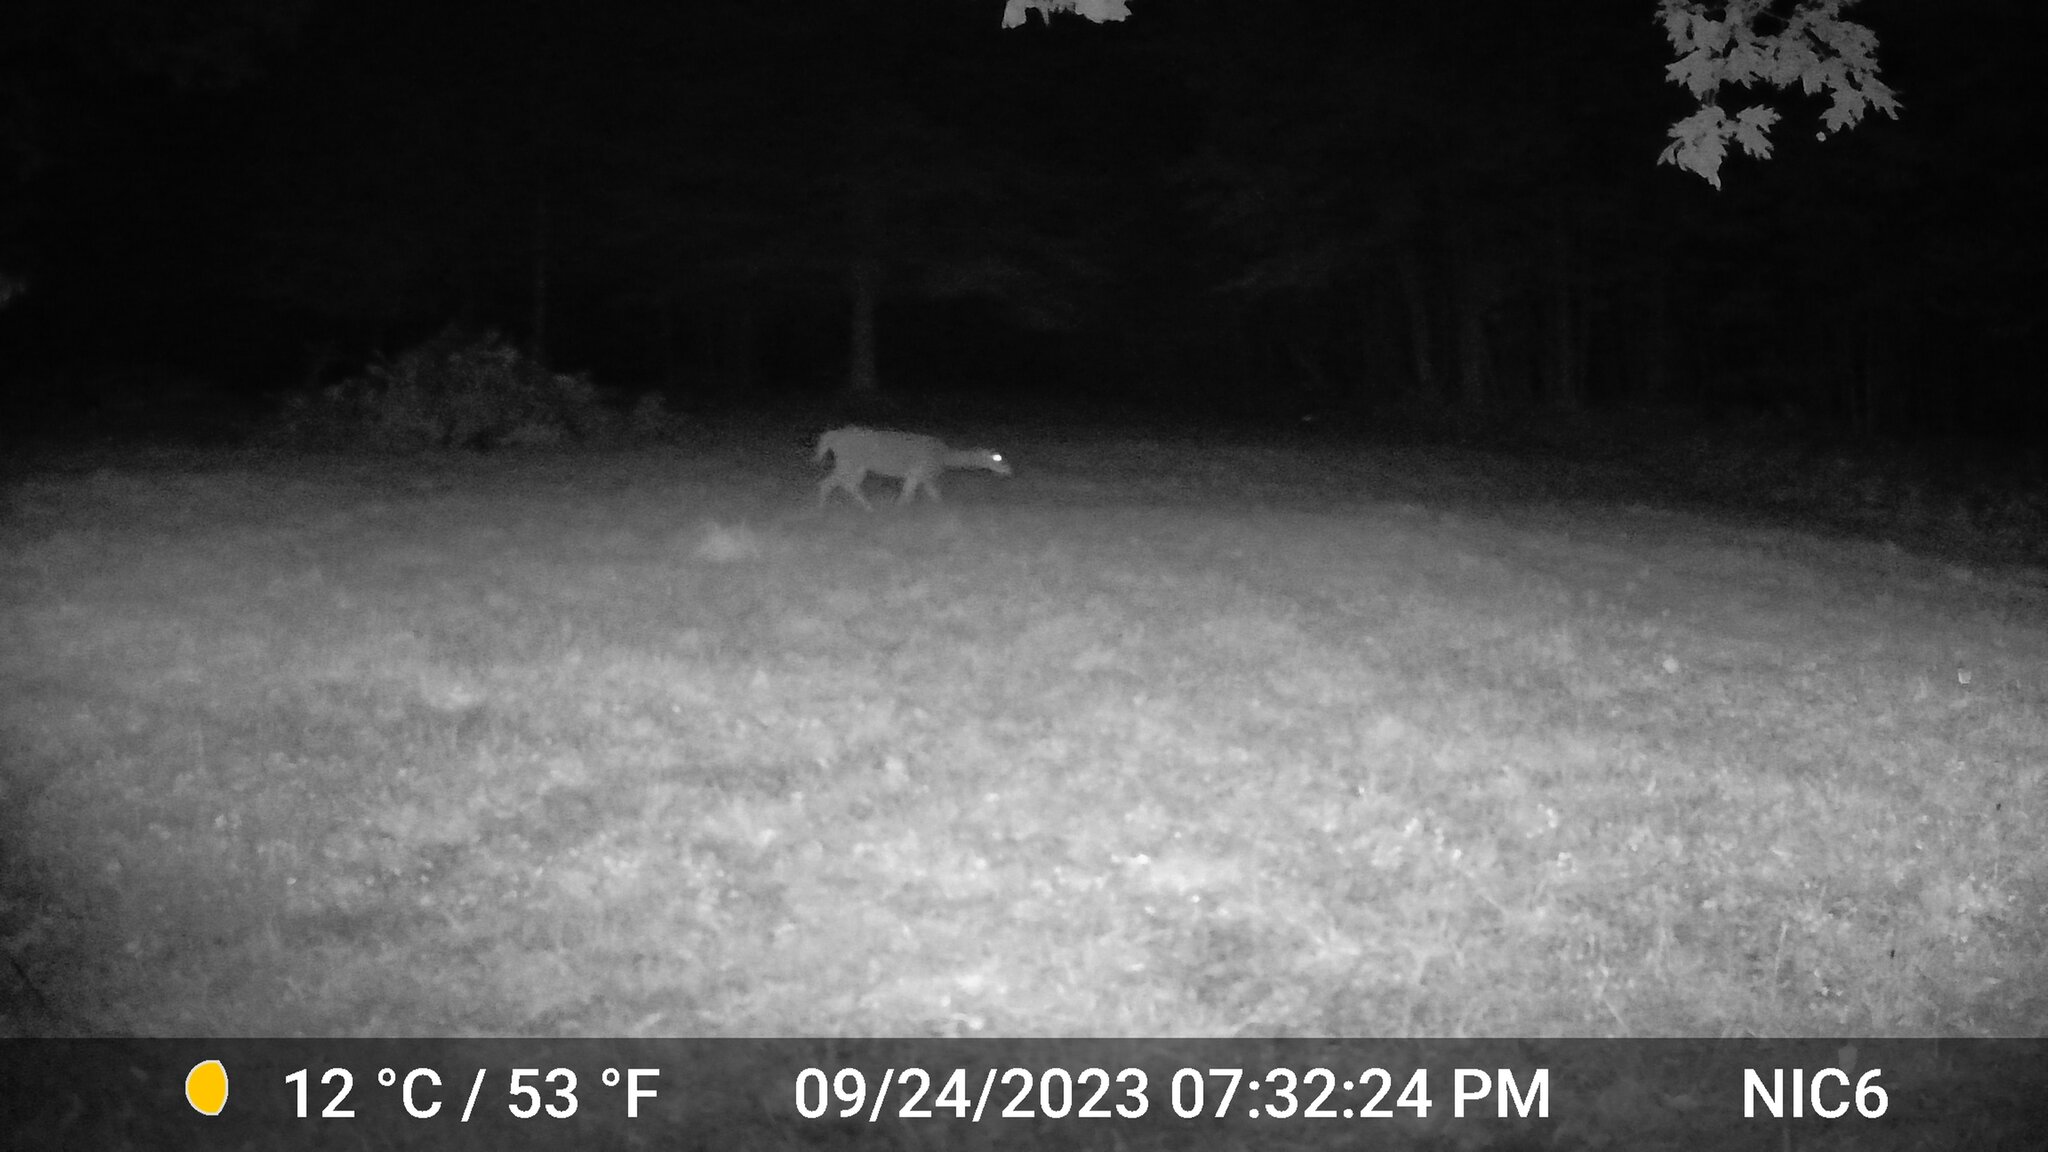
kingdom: Animalia
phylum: Chordata
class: Mammalia
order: Artiodactyla
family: Cervidae
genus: Odocoileus
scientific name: Odocoileus virginianus
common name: White-tailed deer
